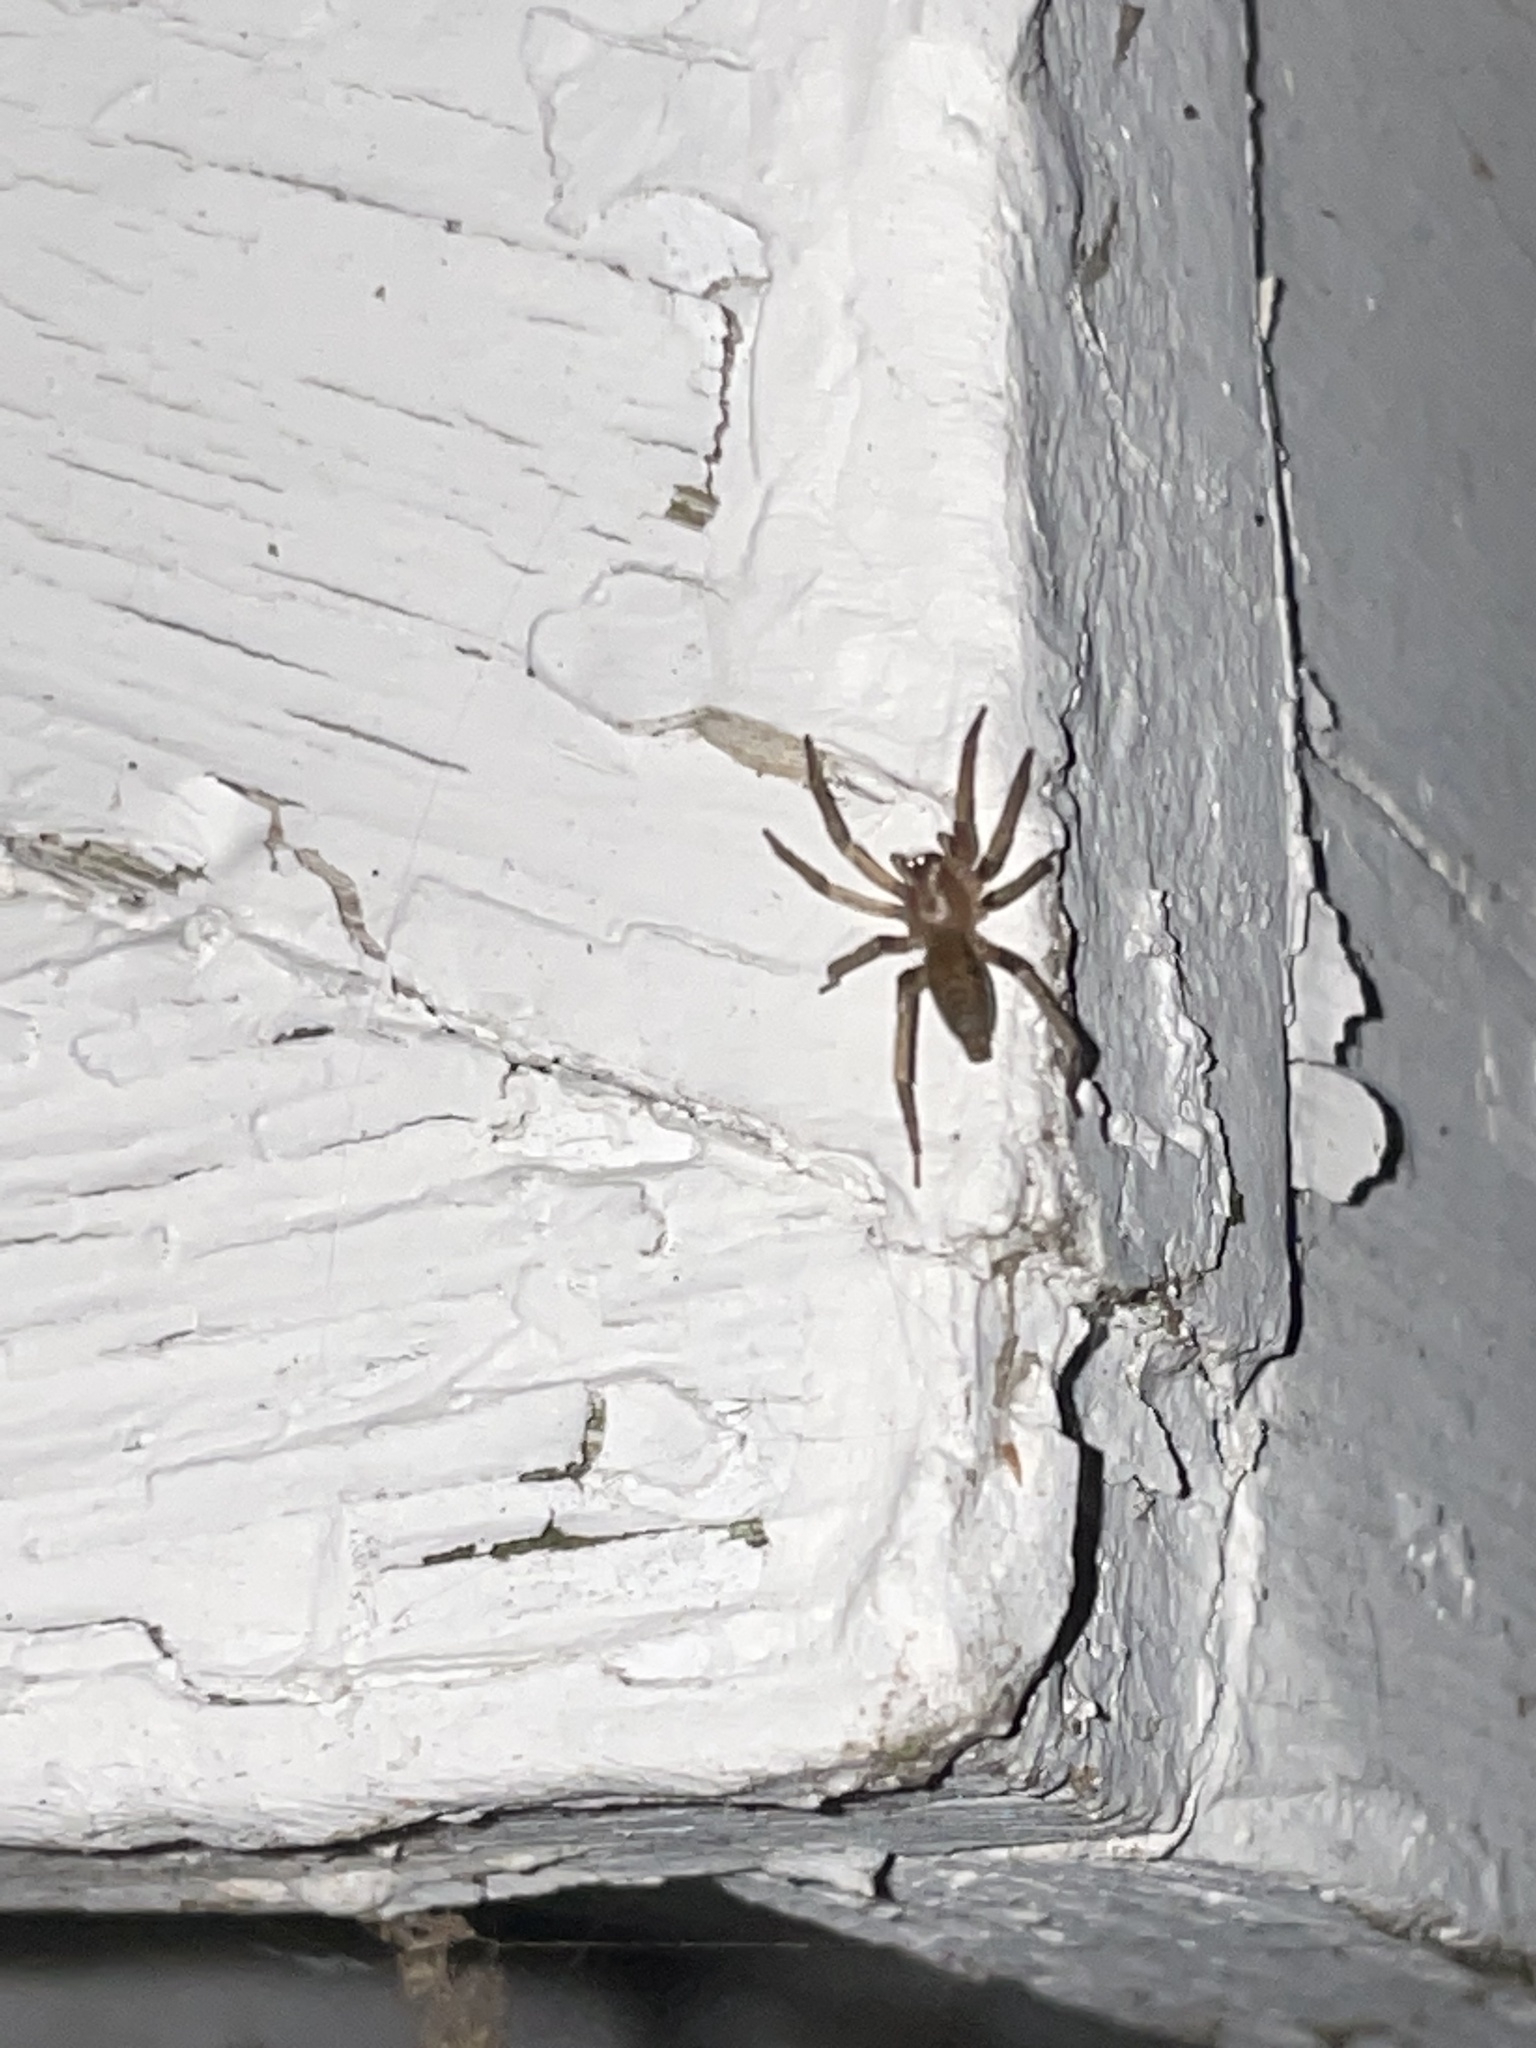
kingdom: Animalia
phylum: Arthropoda
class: Arachnida
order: Araneae
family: Clubionidae
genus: Elaver
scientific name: Elaver excepta
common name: White sac spider
